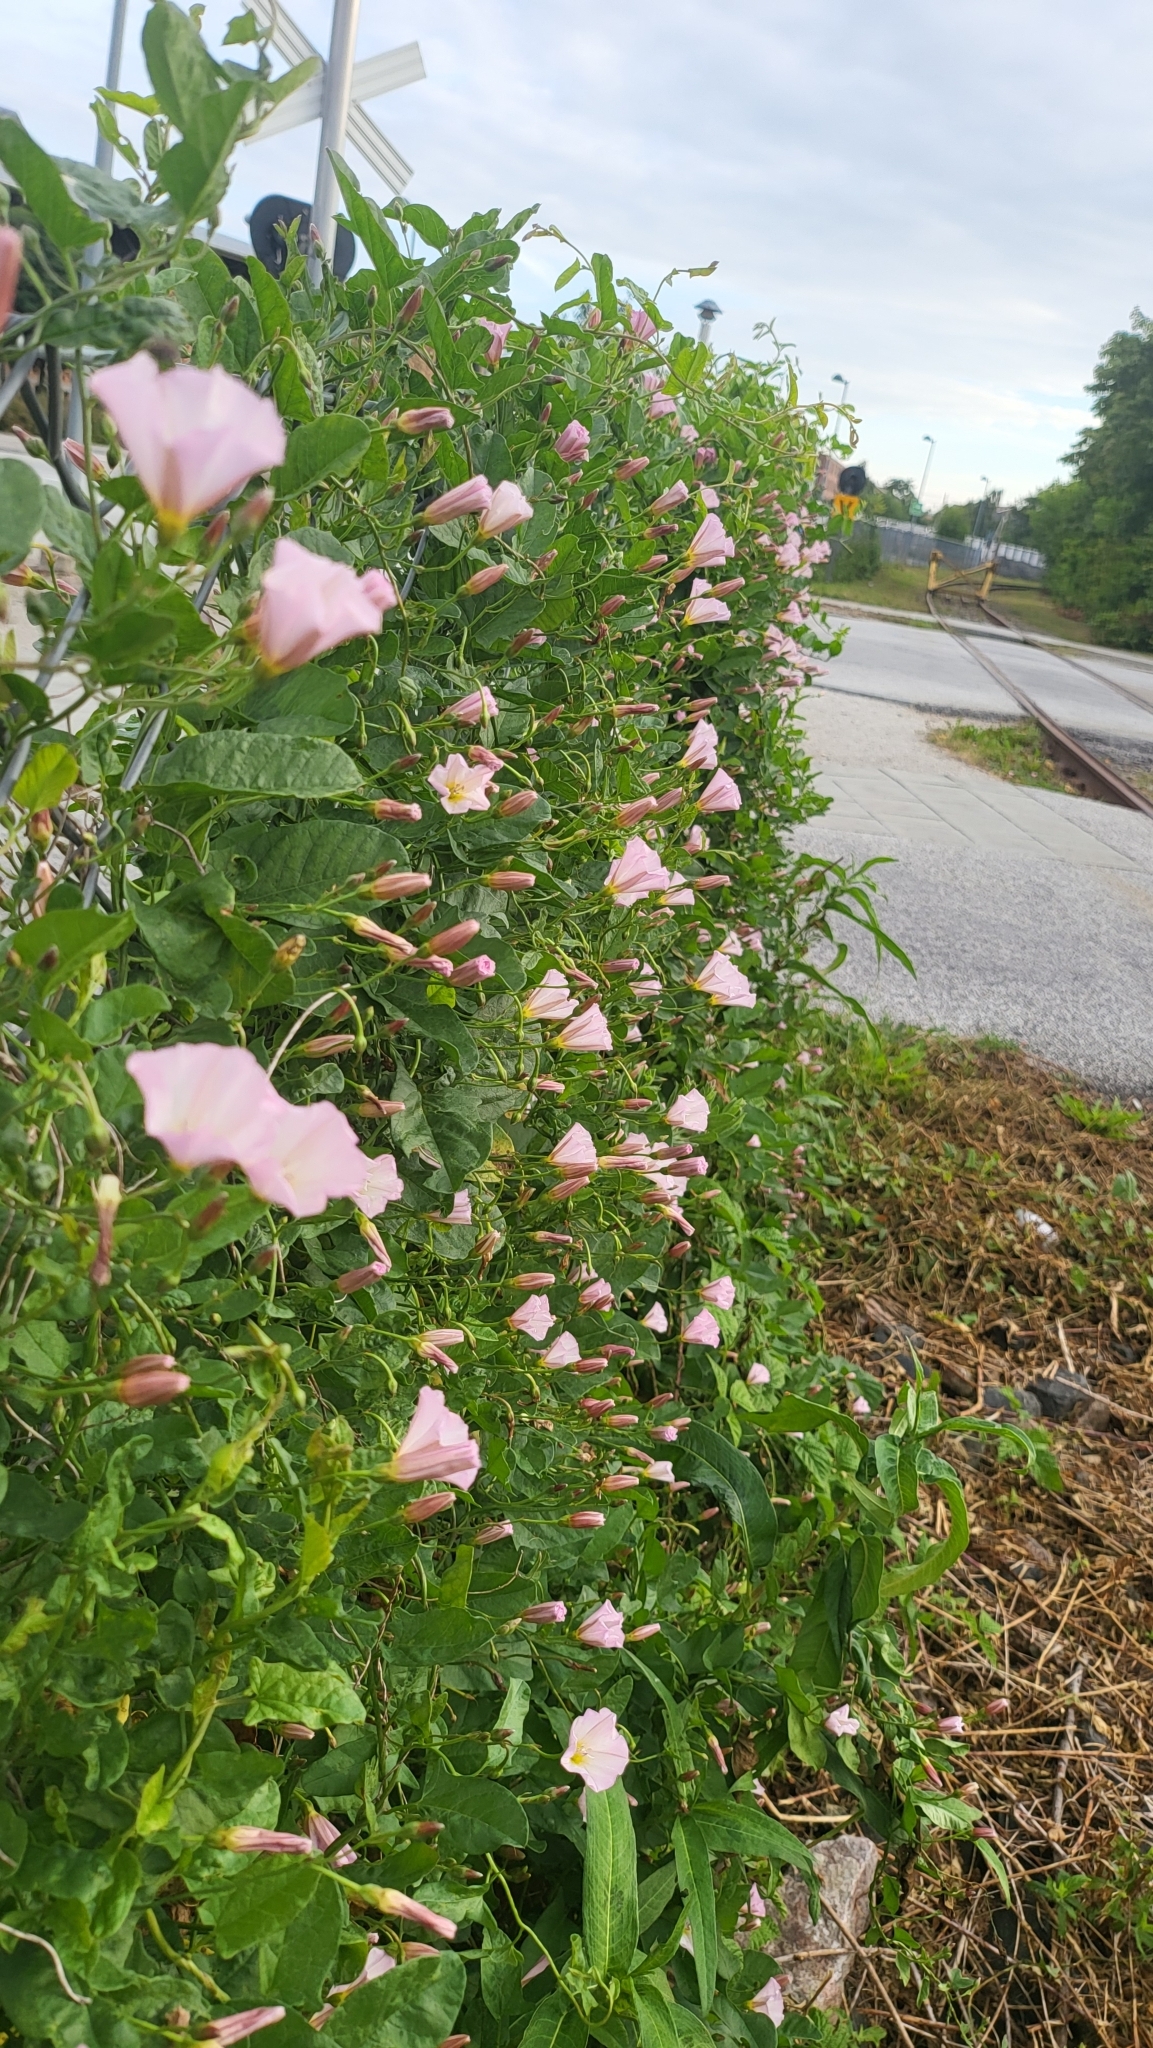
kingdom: Plantae
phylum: Tracheophyta
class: Magnoliopsida
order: Solanales
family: Convolvulaceae
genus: Convolvulus
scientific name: Convolvulus arvensis
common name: Field bindweed
